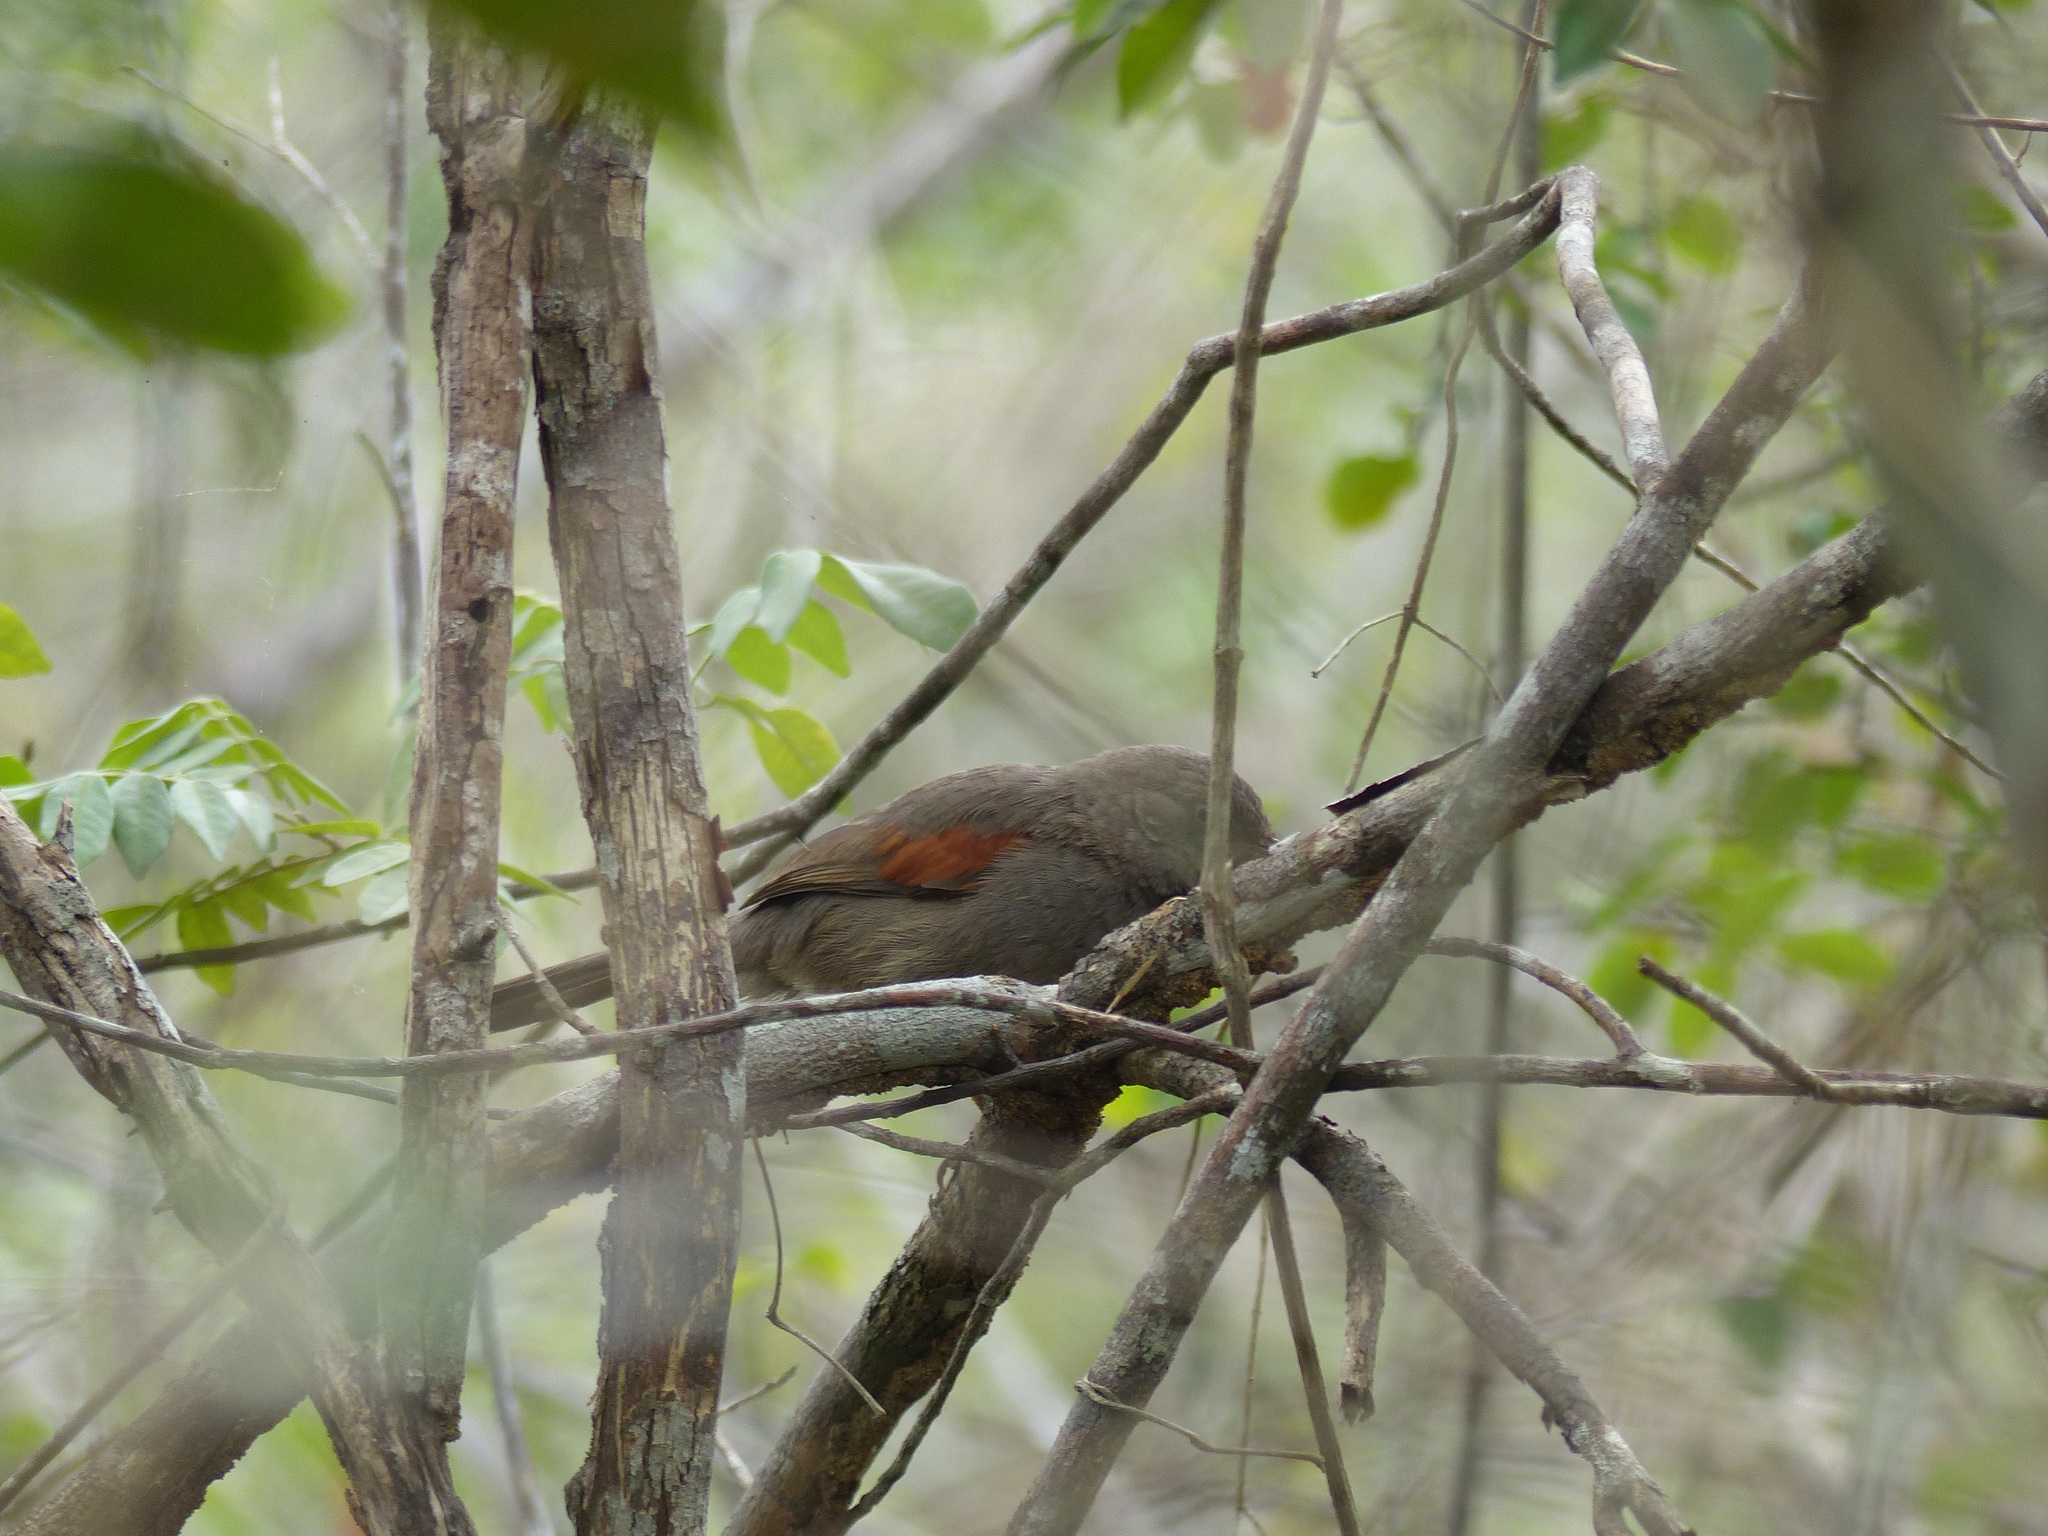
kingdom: Animalia
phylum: Chordata
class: Aves
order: Passeriformes
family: Furnariidae
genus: Gyalophylax
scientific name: Gyalophylax hellmayri
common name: Red-shouldered spinetail
